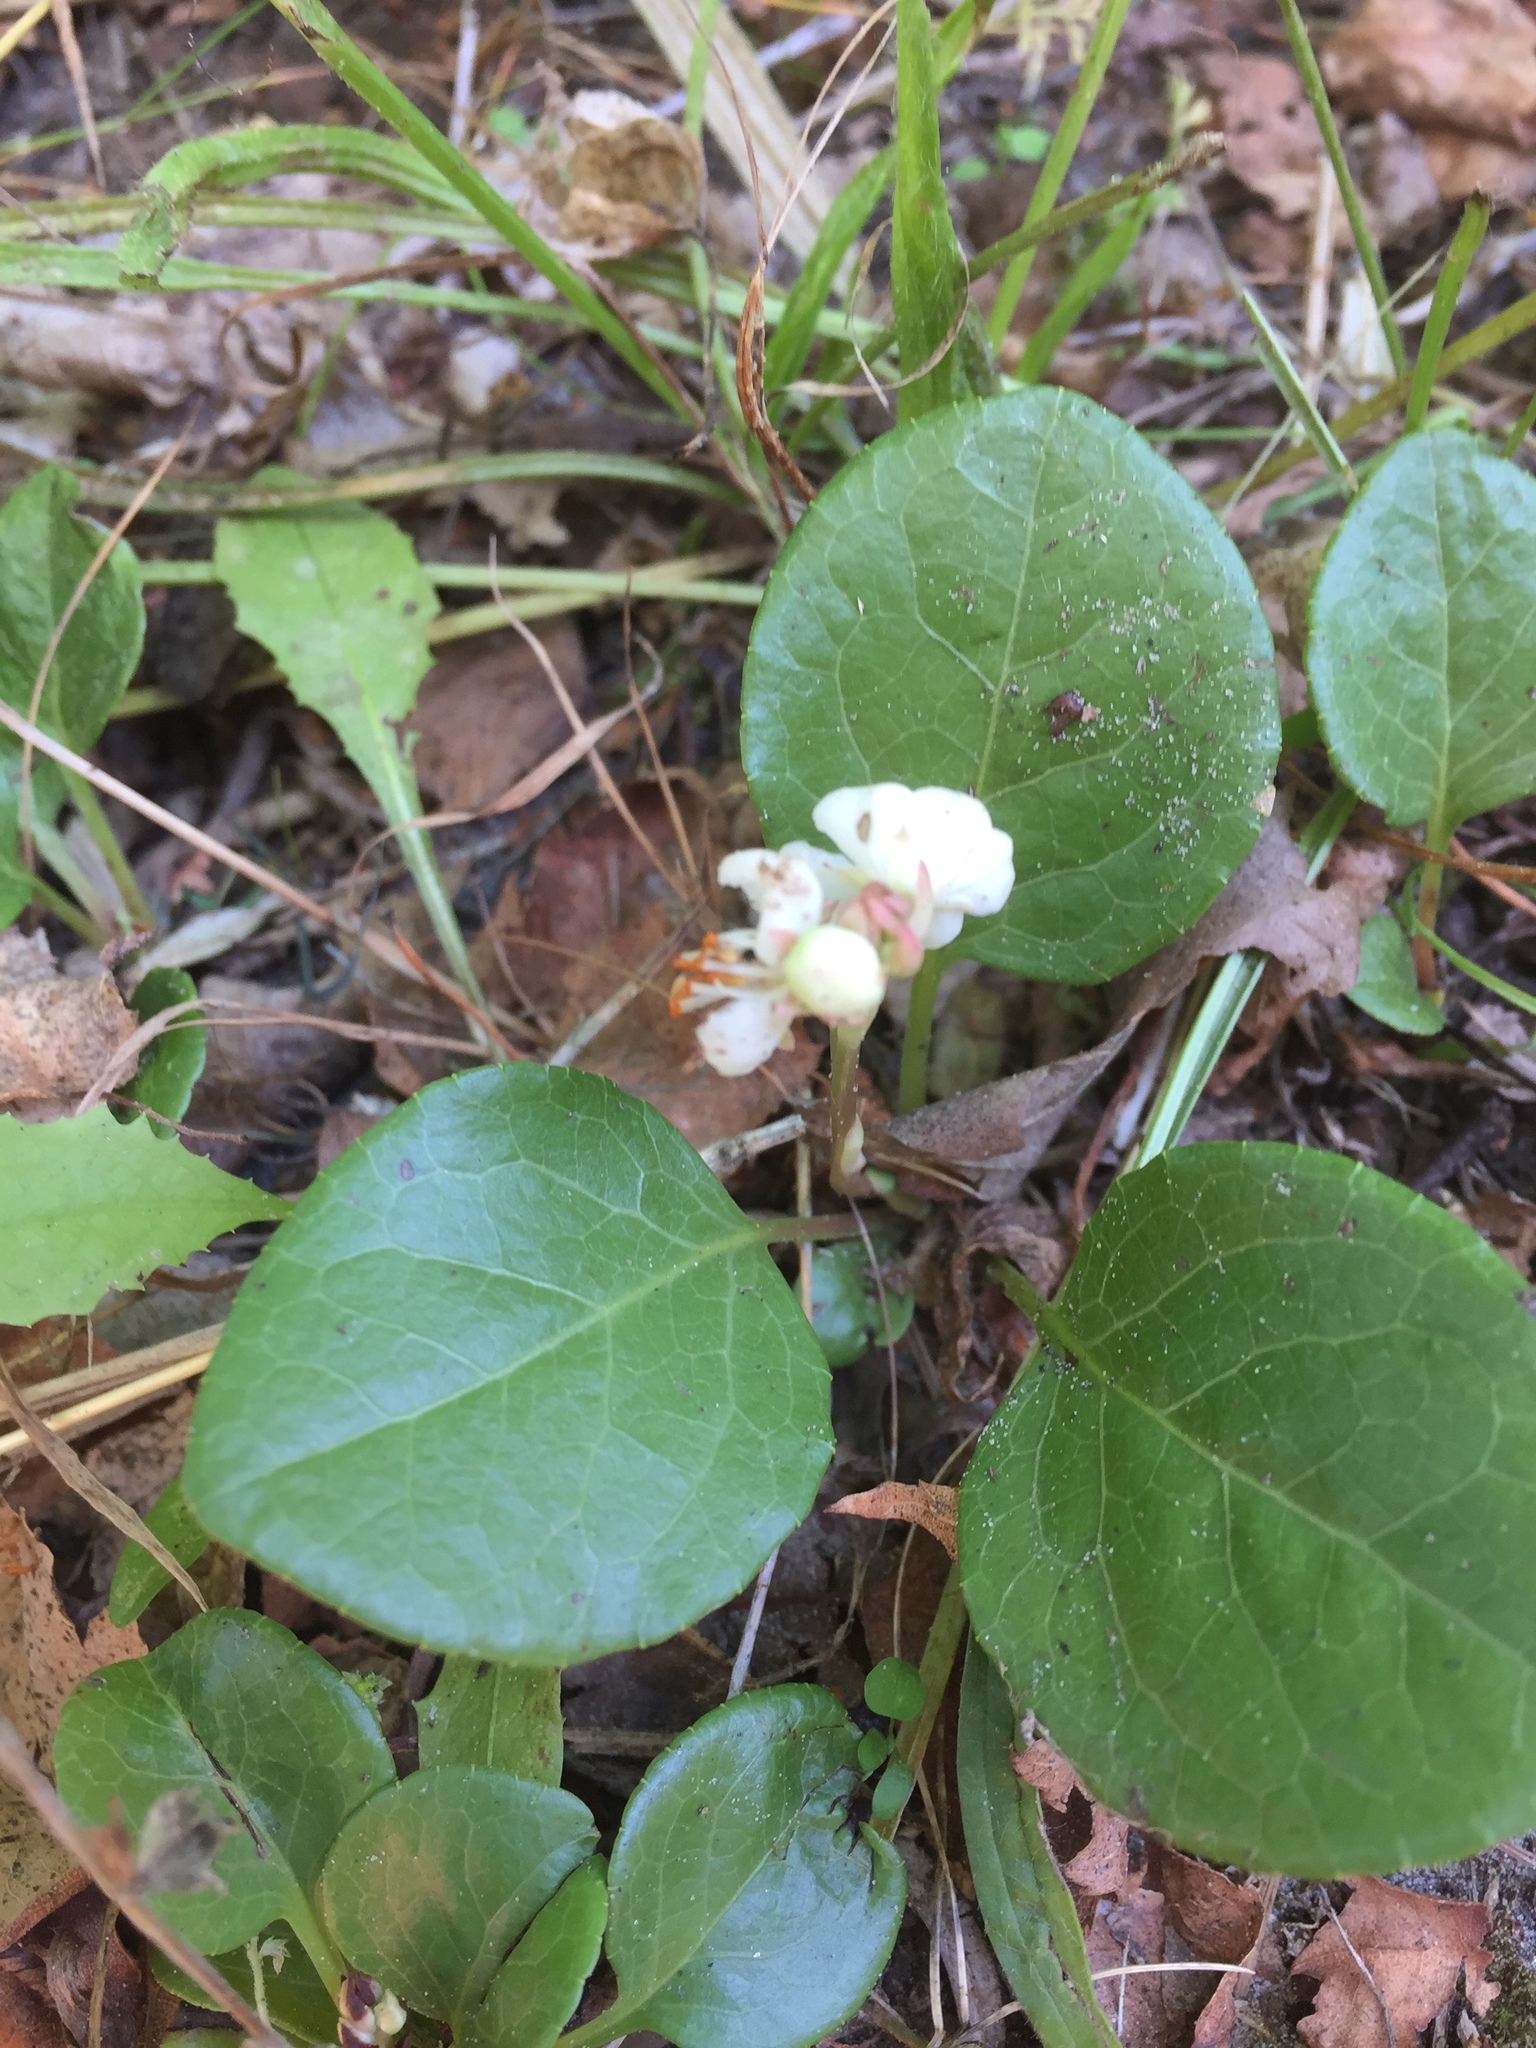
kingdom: Plantae
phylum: Tracheophyta
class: Magnoliopsida
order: Ericales
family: Ericaceae
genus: Pyrola
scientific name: Pyrola rotundifolia
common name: Round-leaved wintergreen
